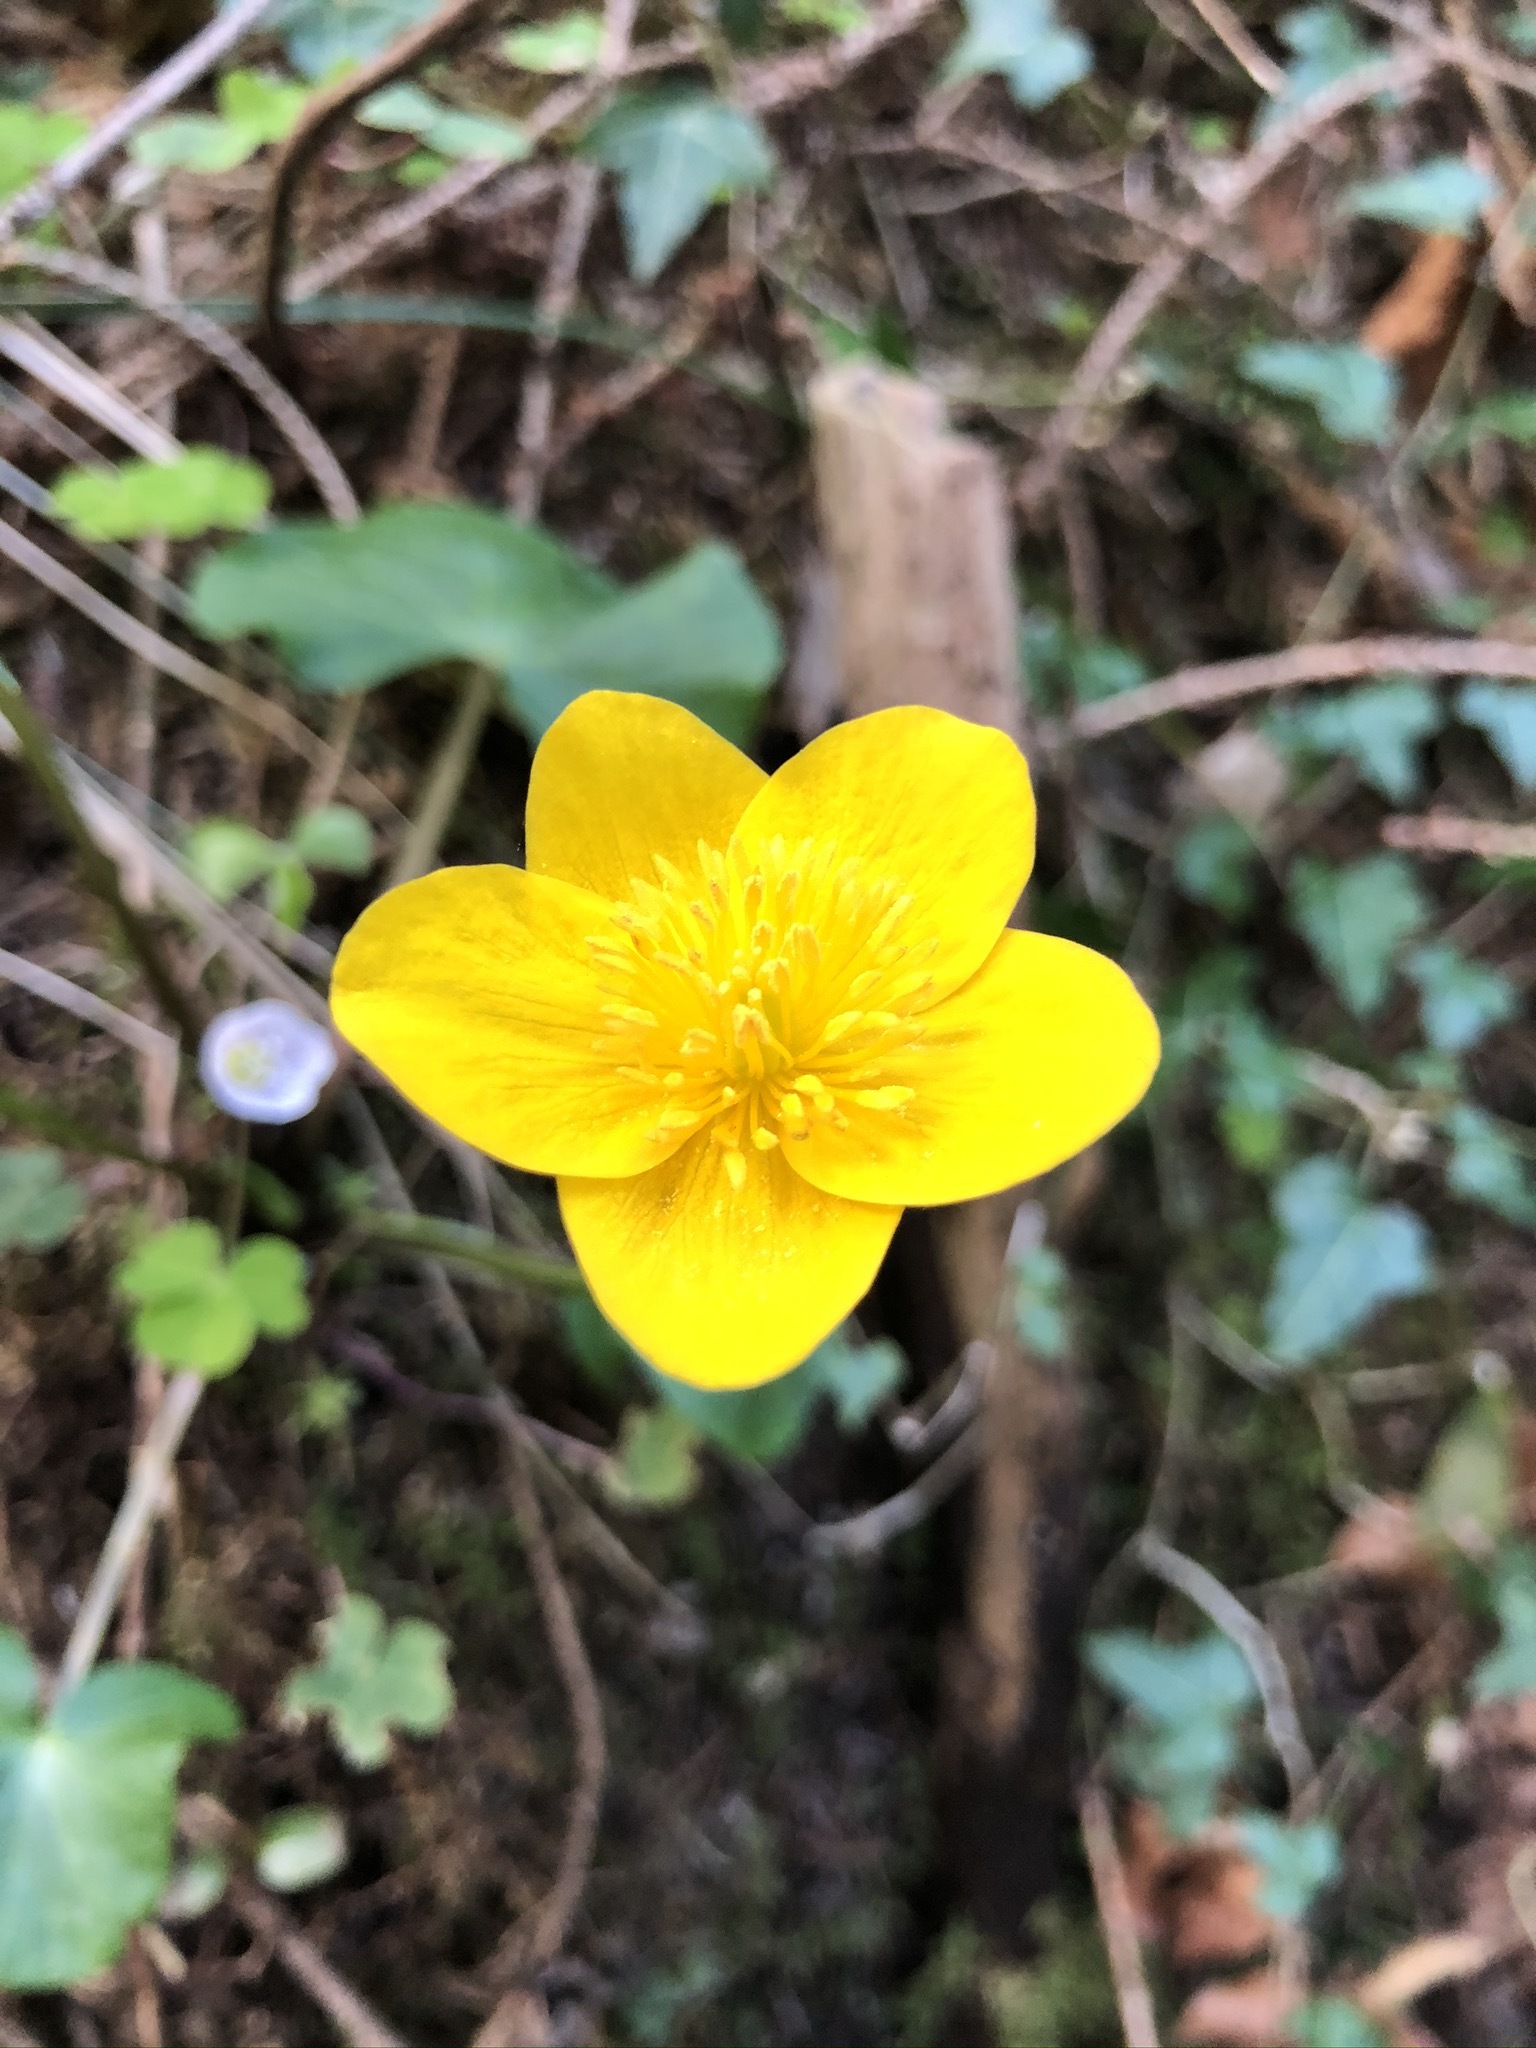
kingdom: Plantae
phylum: Tracheophyta
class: Magnoliopsida
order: Ranunculales
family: Ranunculaceae
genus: Caltha
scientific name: Caltha palustris
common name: Marsh marigold
